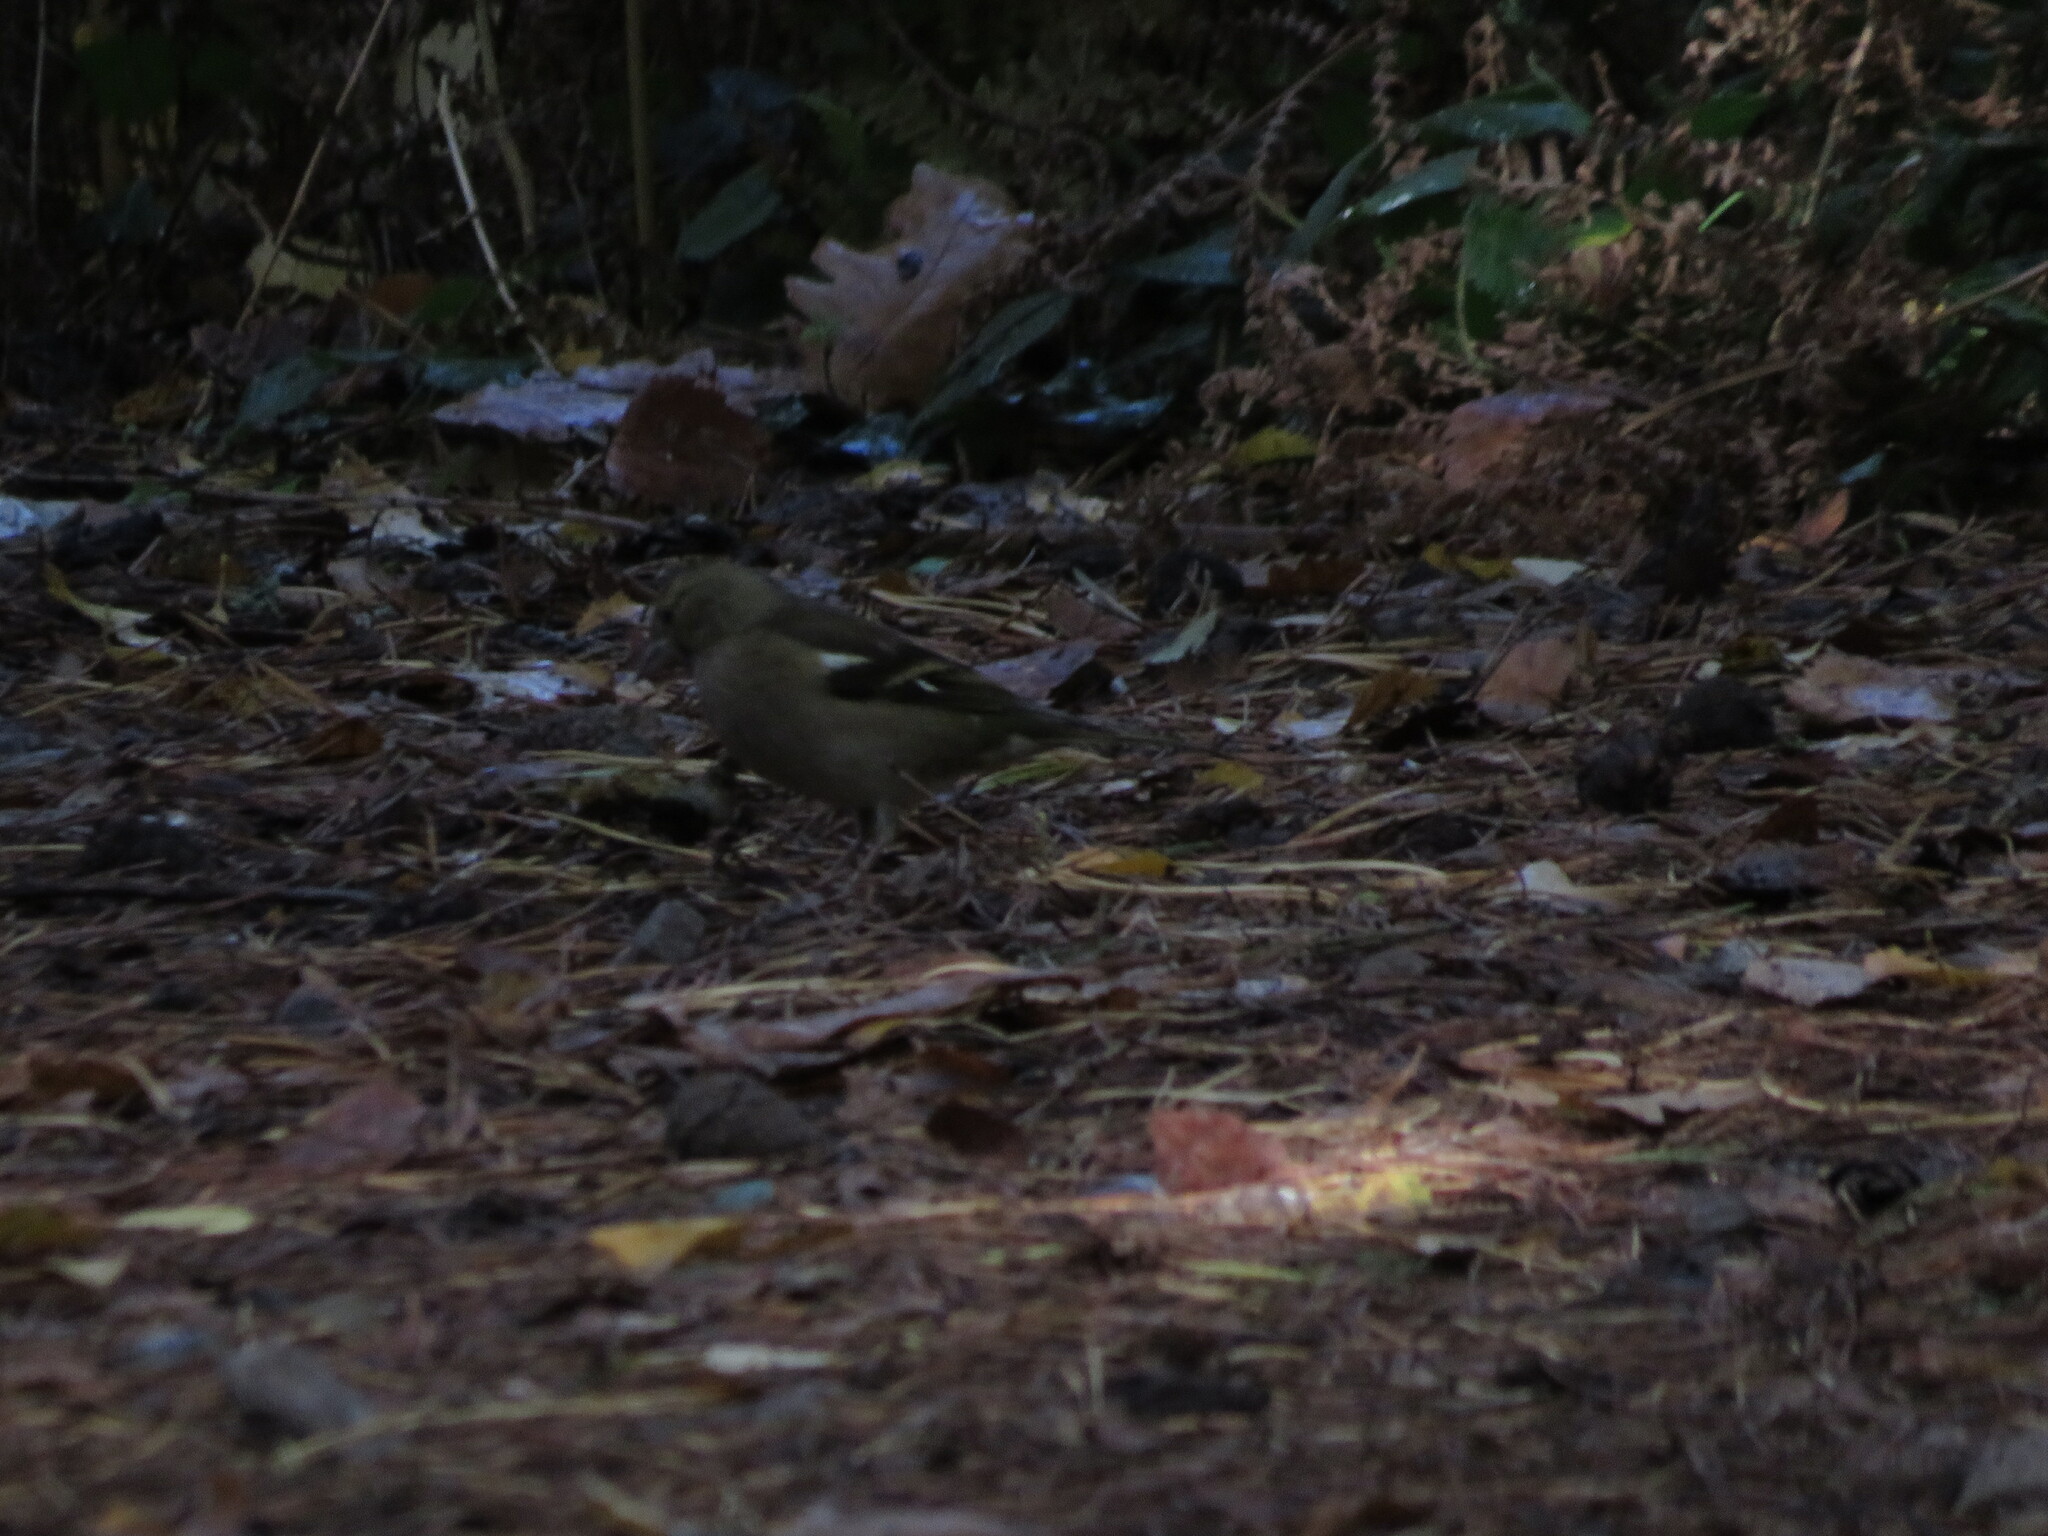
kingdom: Animalia
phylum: Chordata
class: Aves
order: Passeriformes
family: Fringillidae
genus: Fringilla
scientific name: Fringilla coelebs
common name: Common chaffinch
